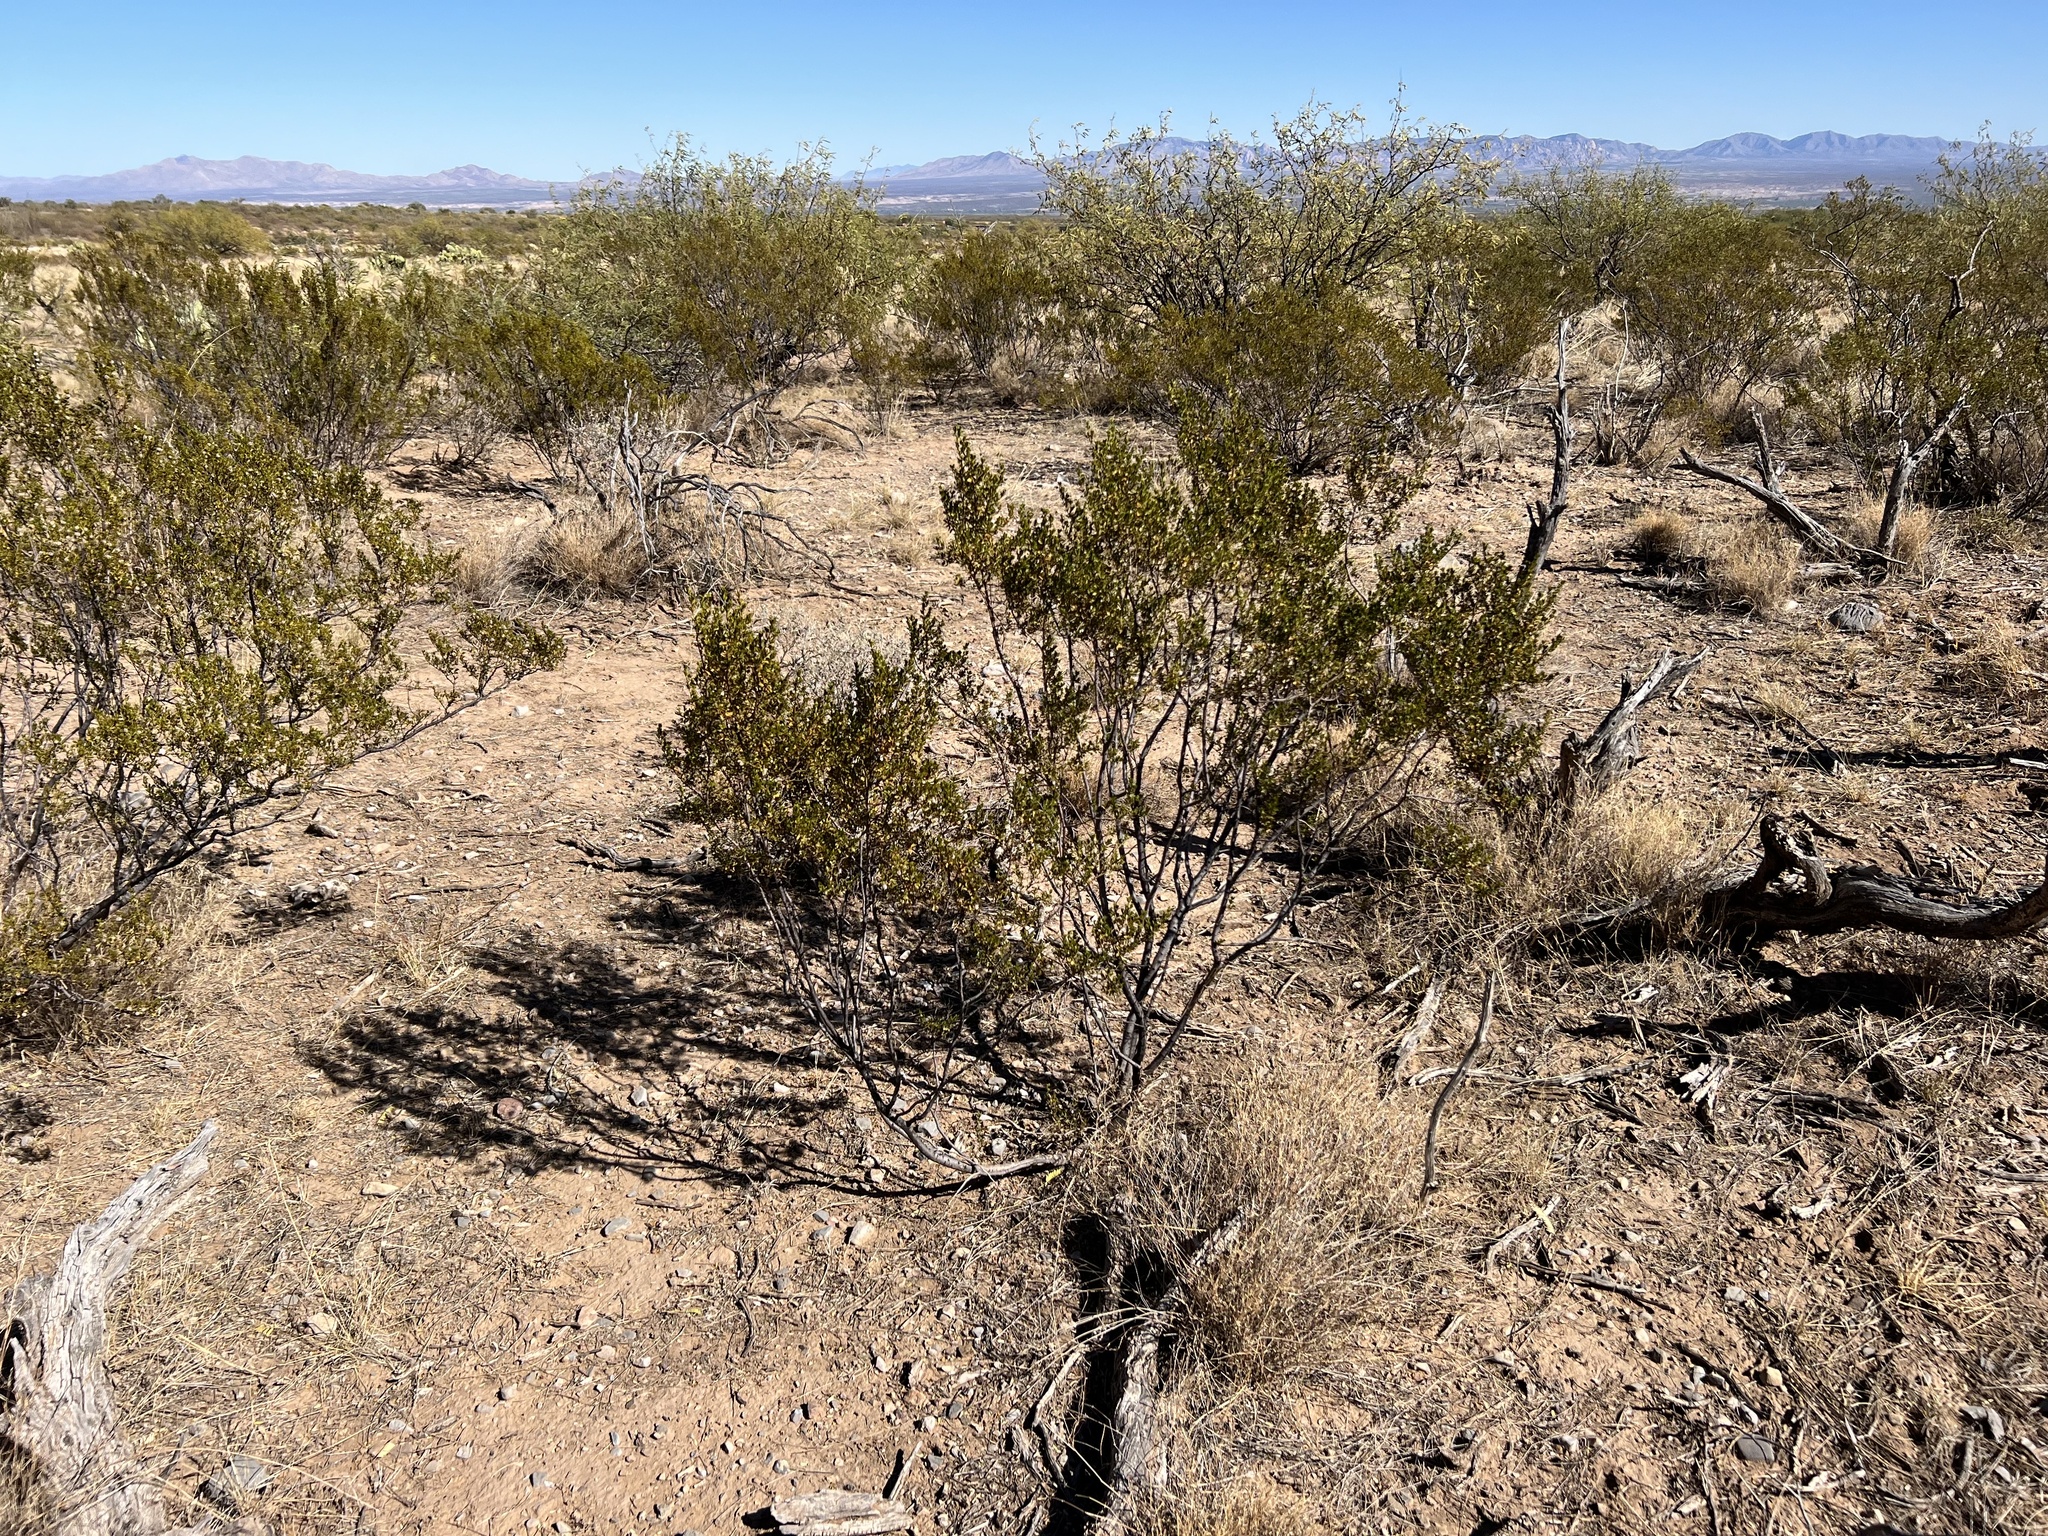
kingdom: Plantae
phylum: Tracheophyta
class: Magnoliopsida
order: Zygophyllales
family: Zygophyllaceae
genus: Larrea
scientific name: Larrea tridentata
